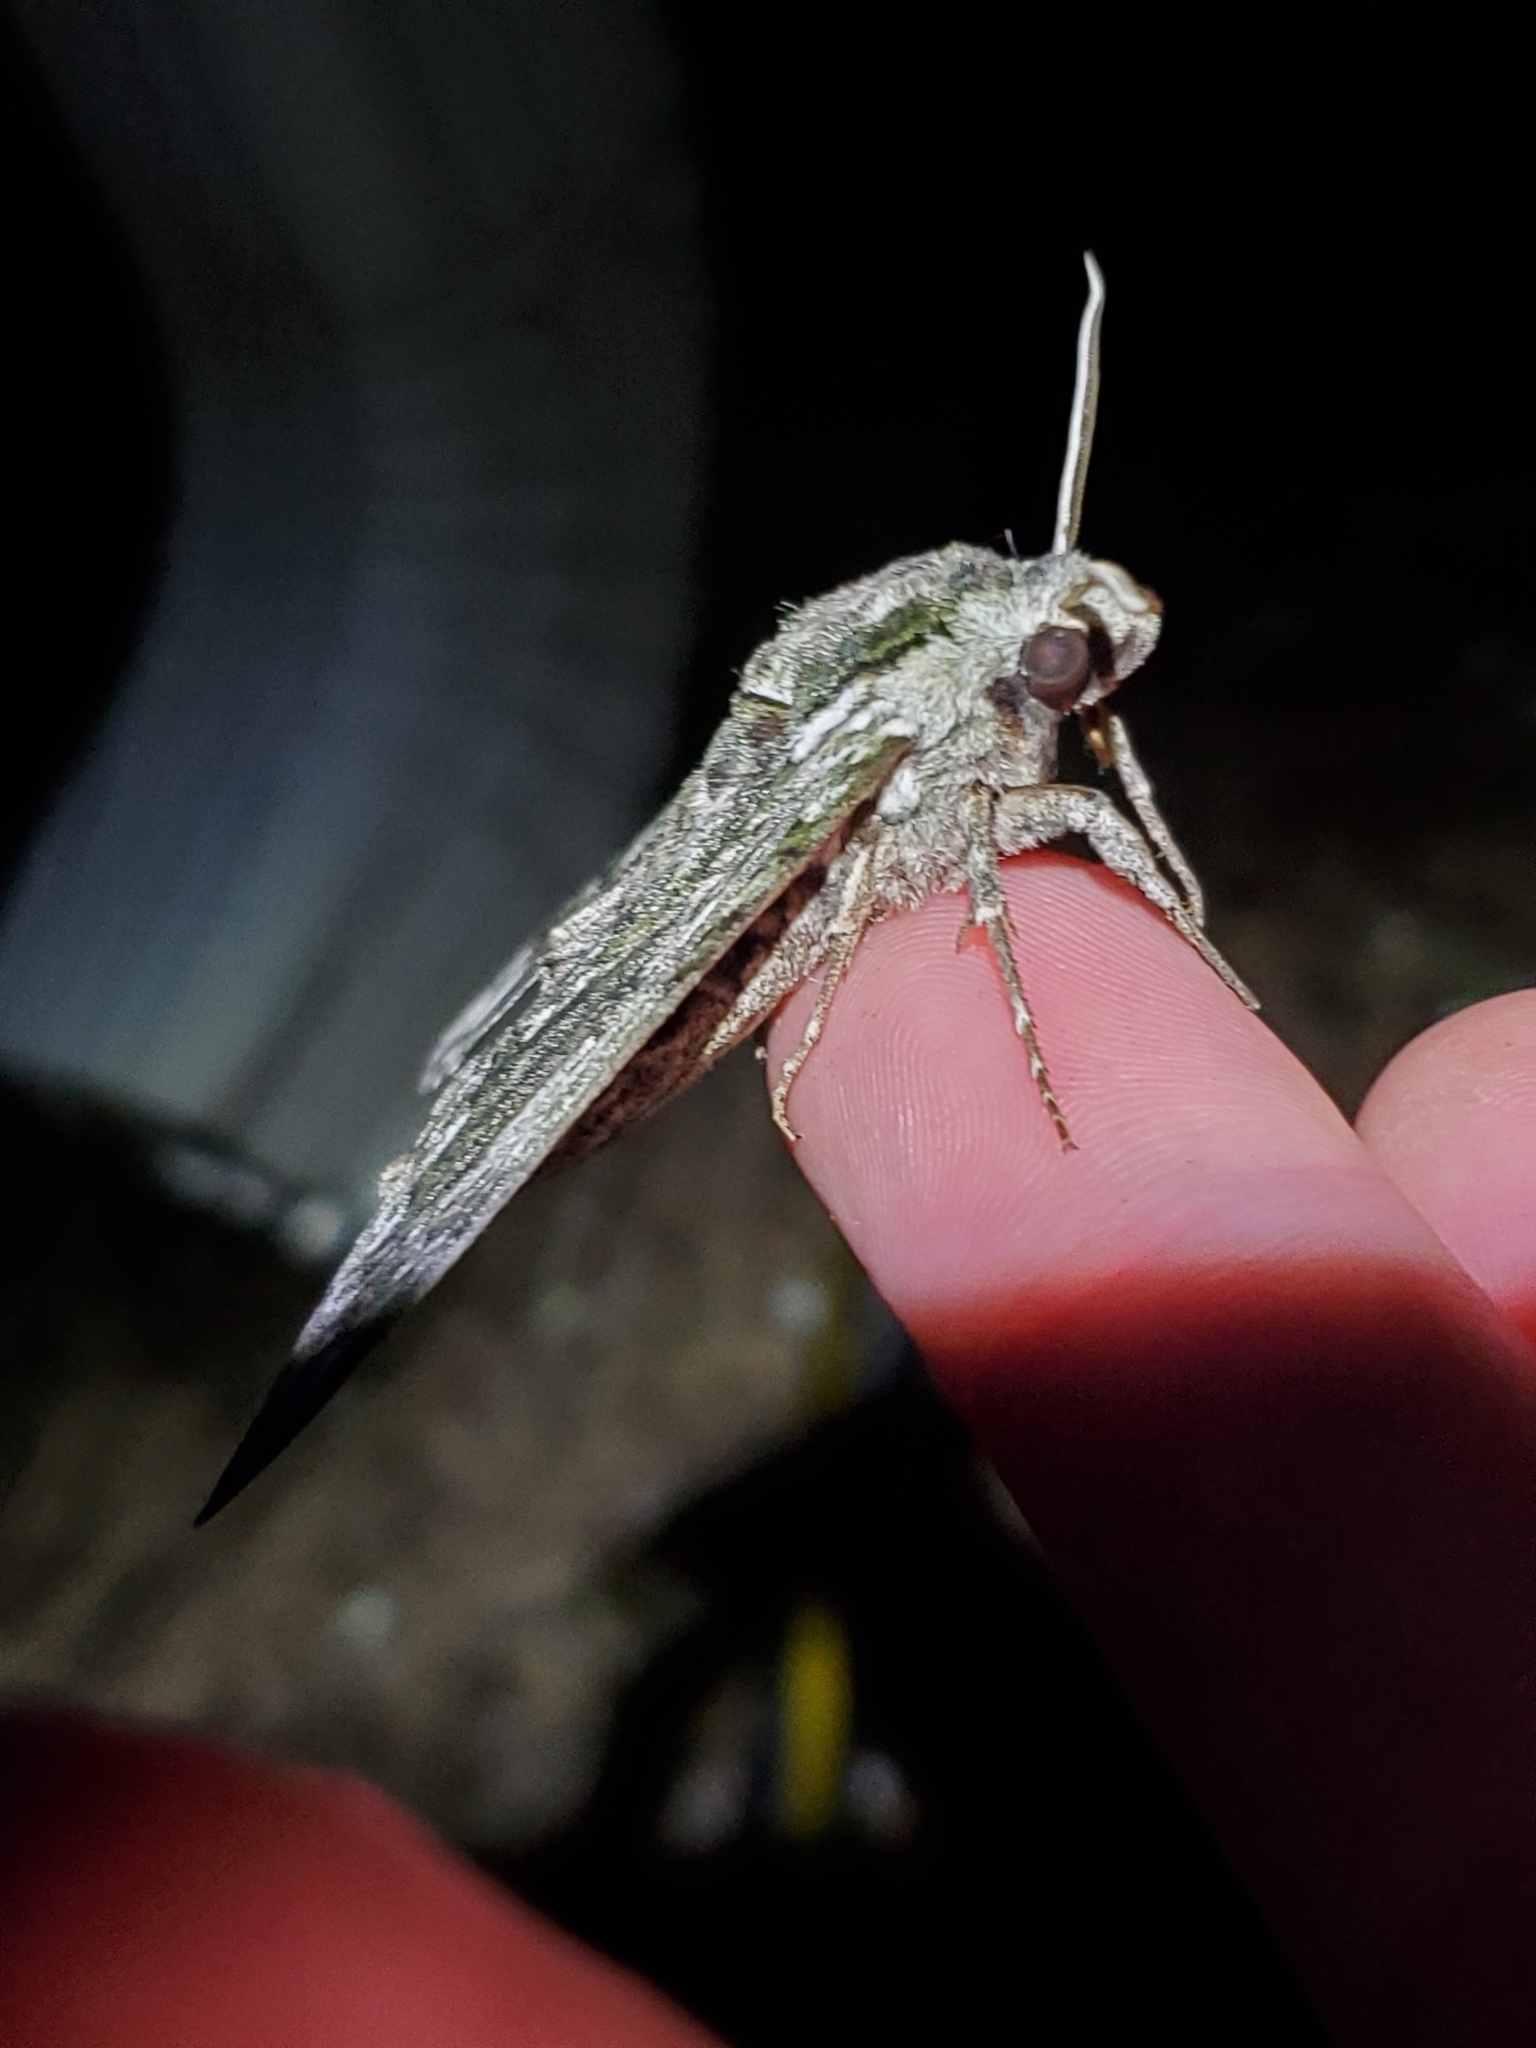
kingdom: Animalia
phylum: Arthropoda
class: Insecta
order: Lepidoptera
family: Sphingidae
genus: Ceratomia
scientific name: Ceratomia hageni
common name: Hagen's sphinx
